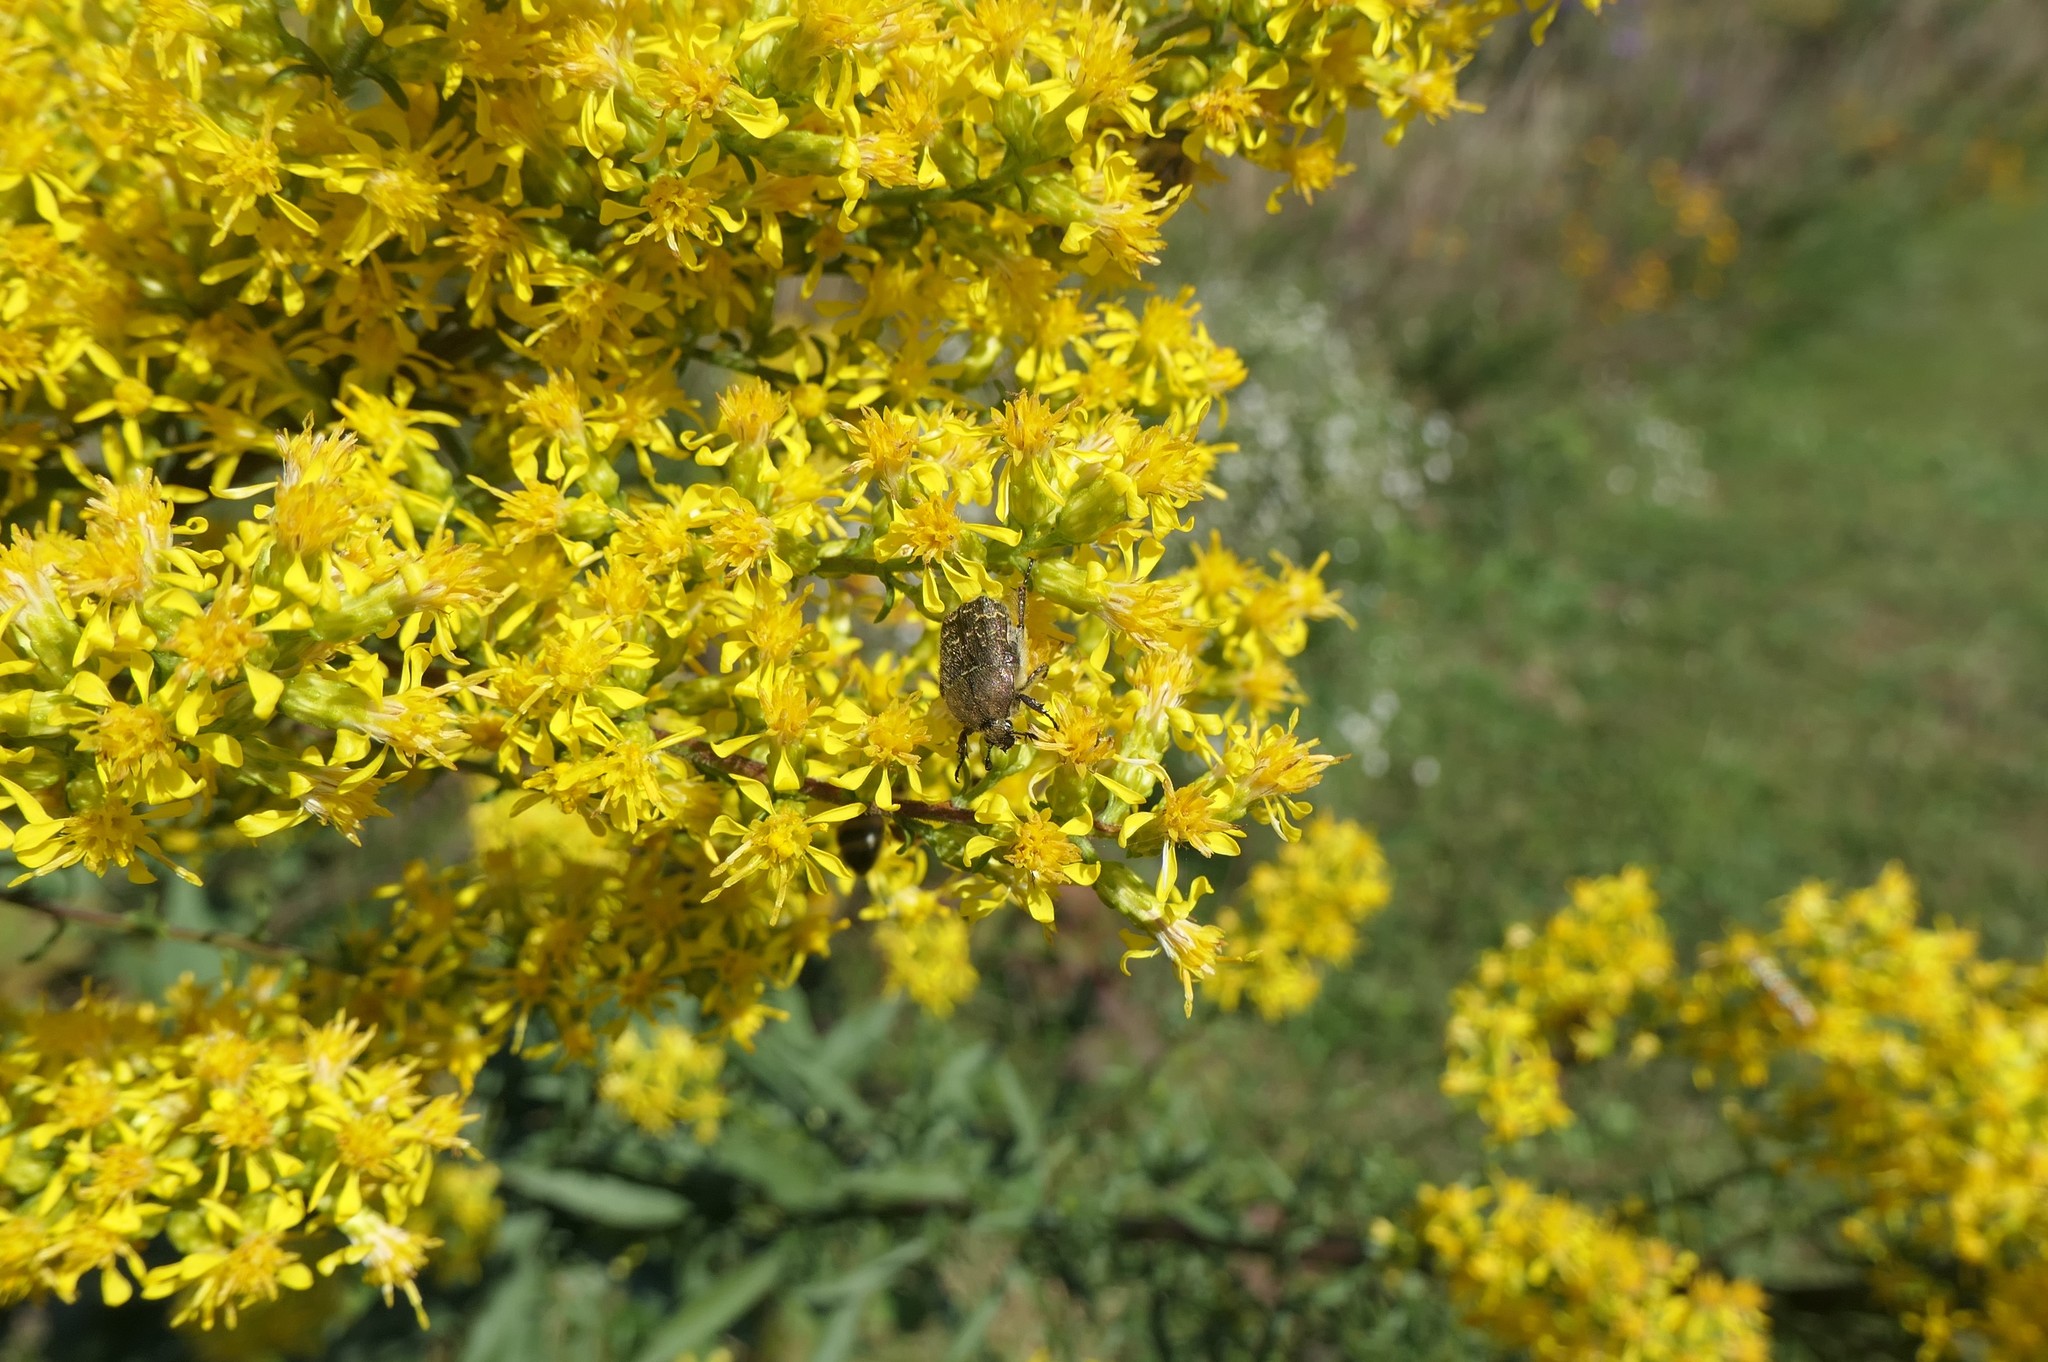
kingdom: Animalia
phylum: Arthropoda
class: Insecta
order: Coleoptera
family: Scarabaeidae
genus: Euphoria
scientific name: Euphoria sepulcralis
